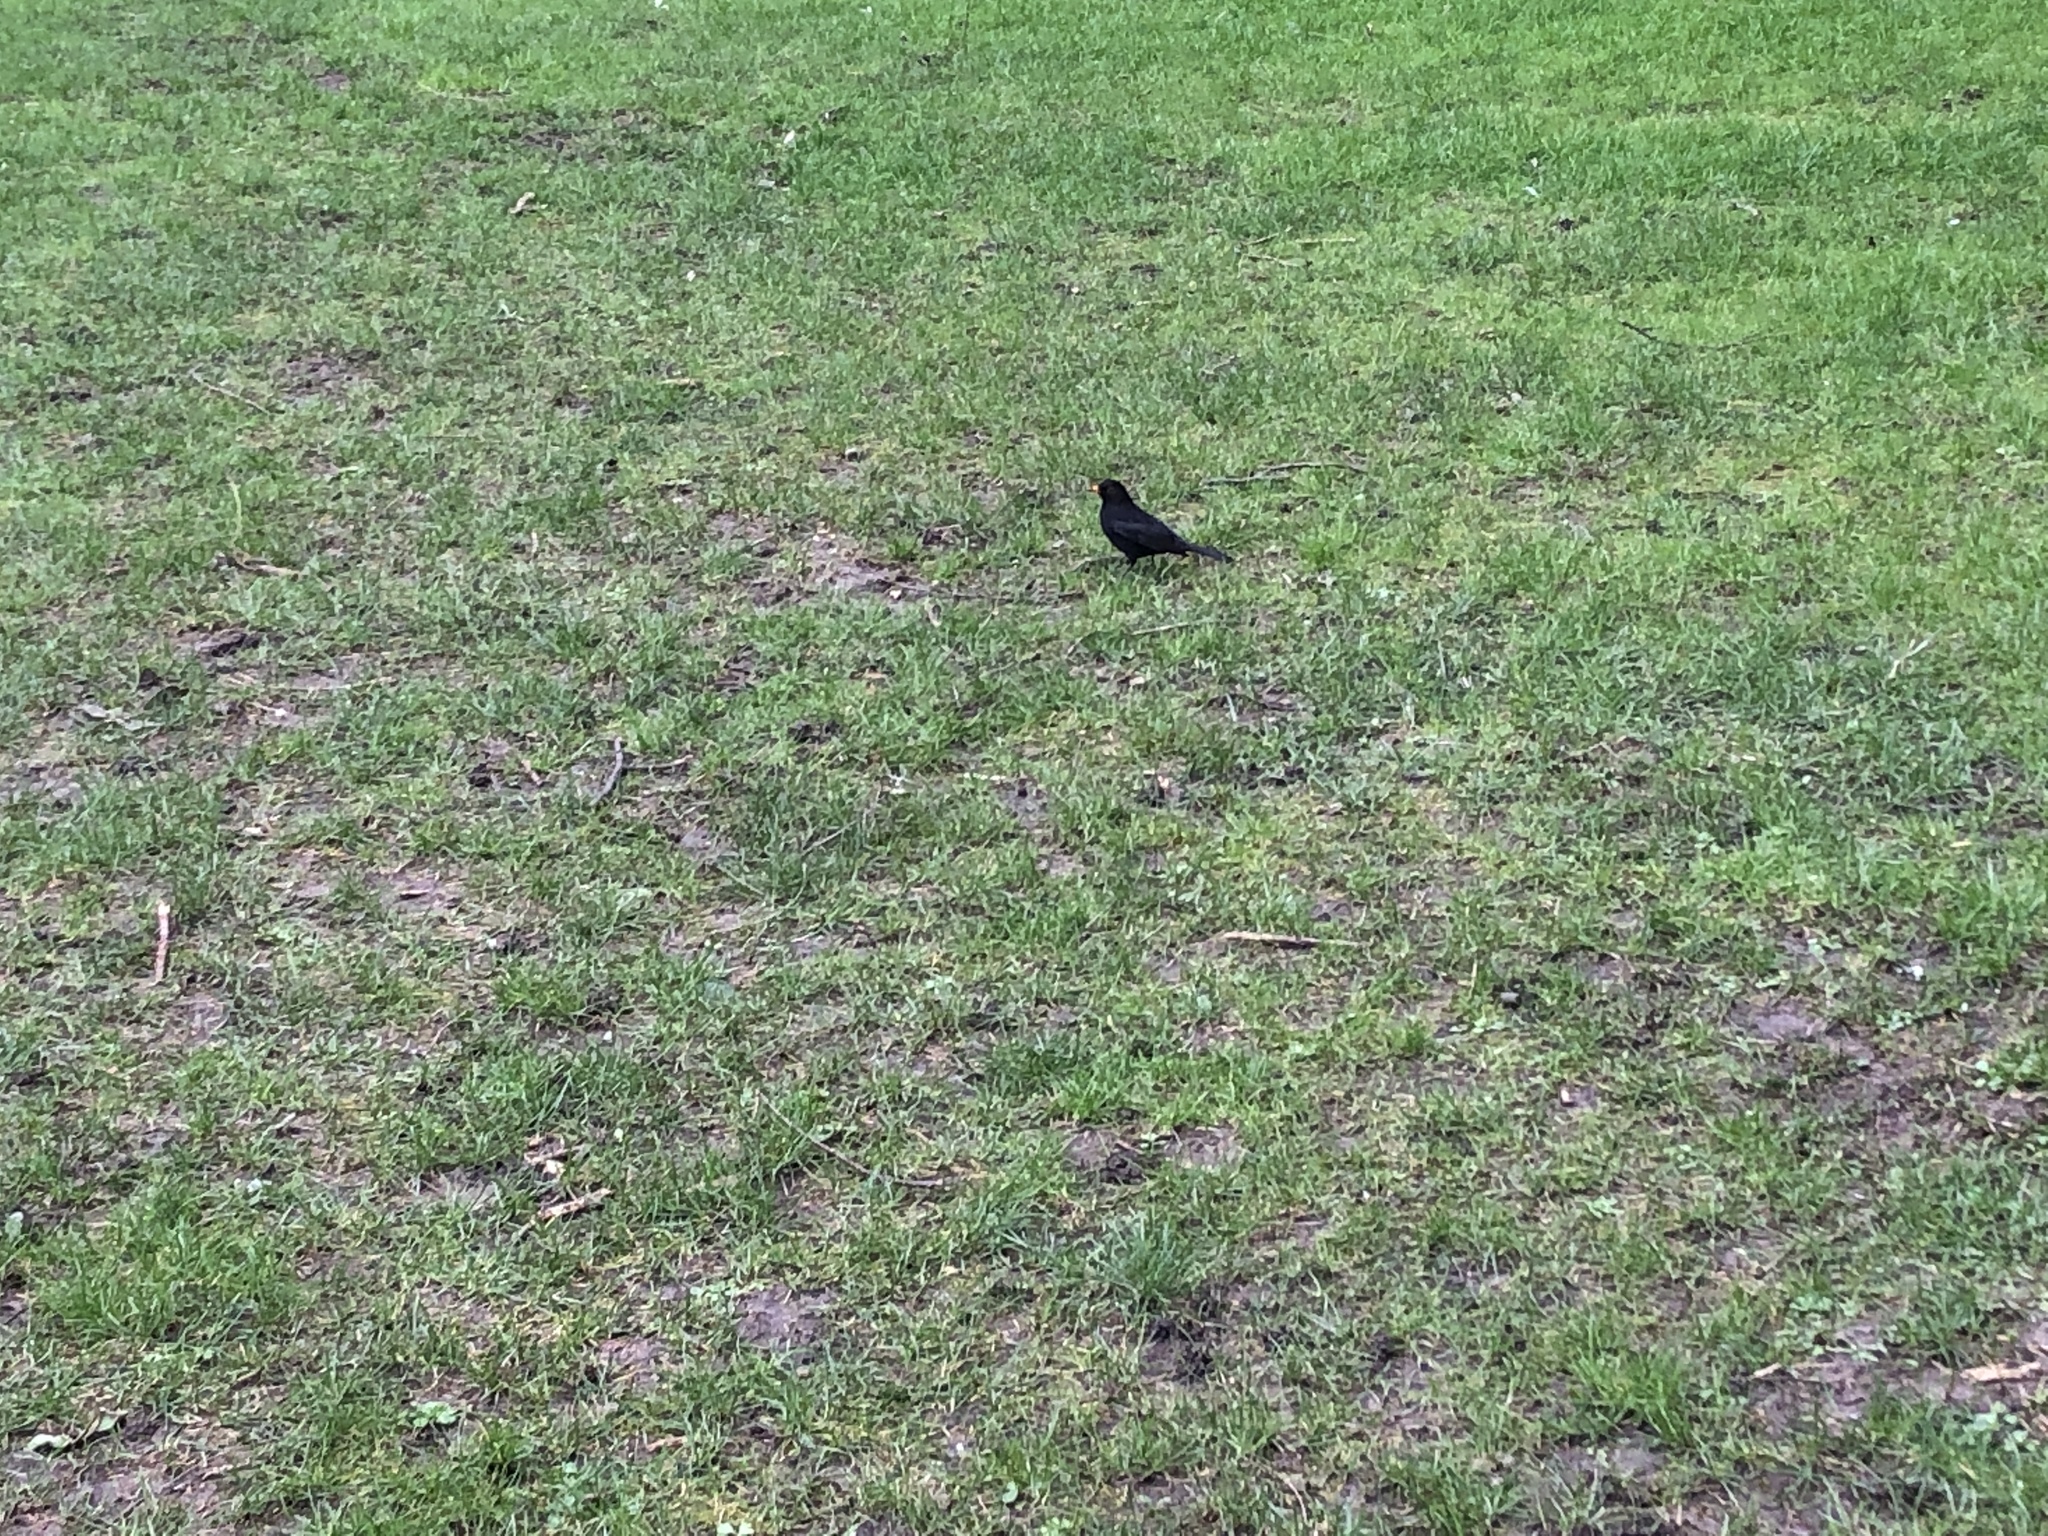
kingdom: Animalia
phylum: Chordata
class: Aves
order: Passeriformes
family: Turdidae
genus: Turdus
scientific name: Turdus merula
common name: Common blackbird
